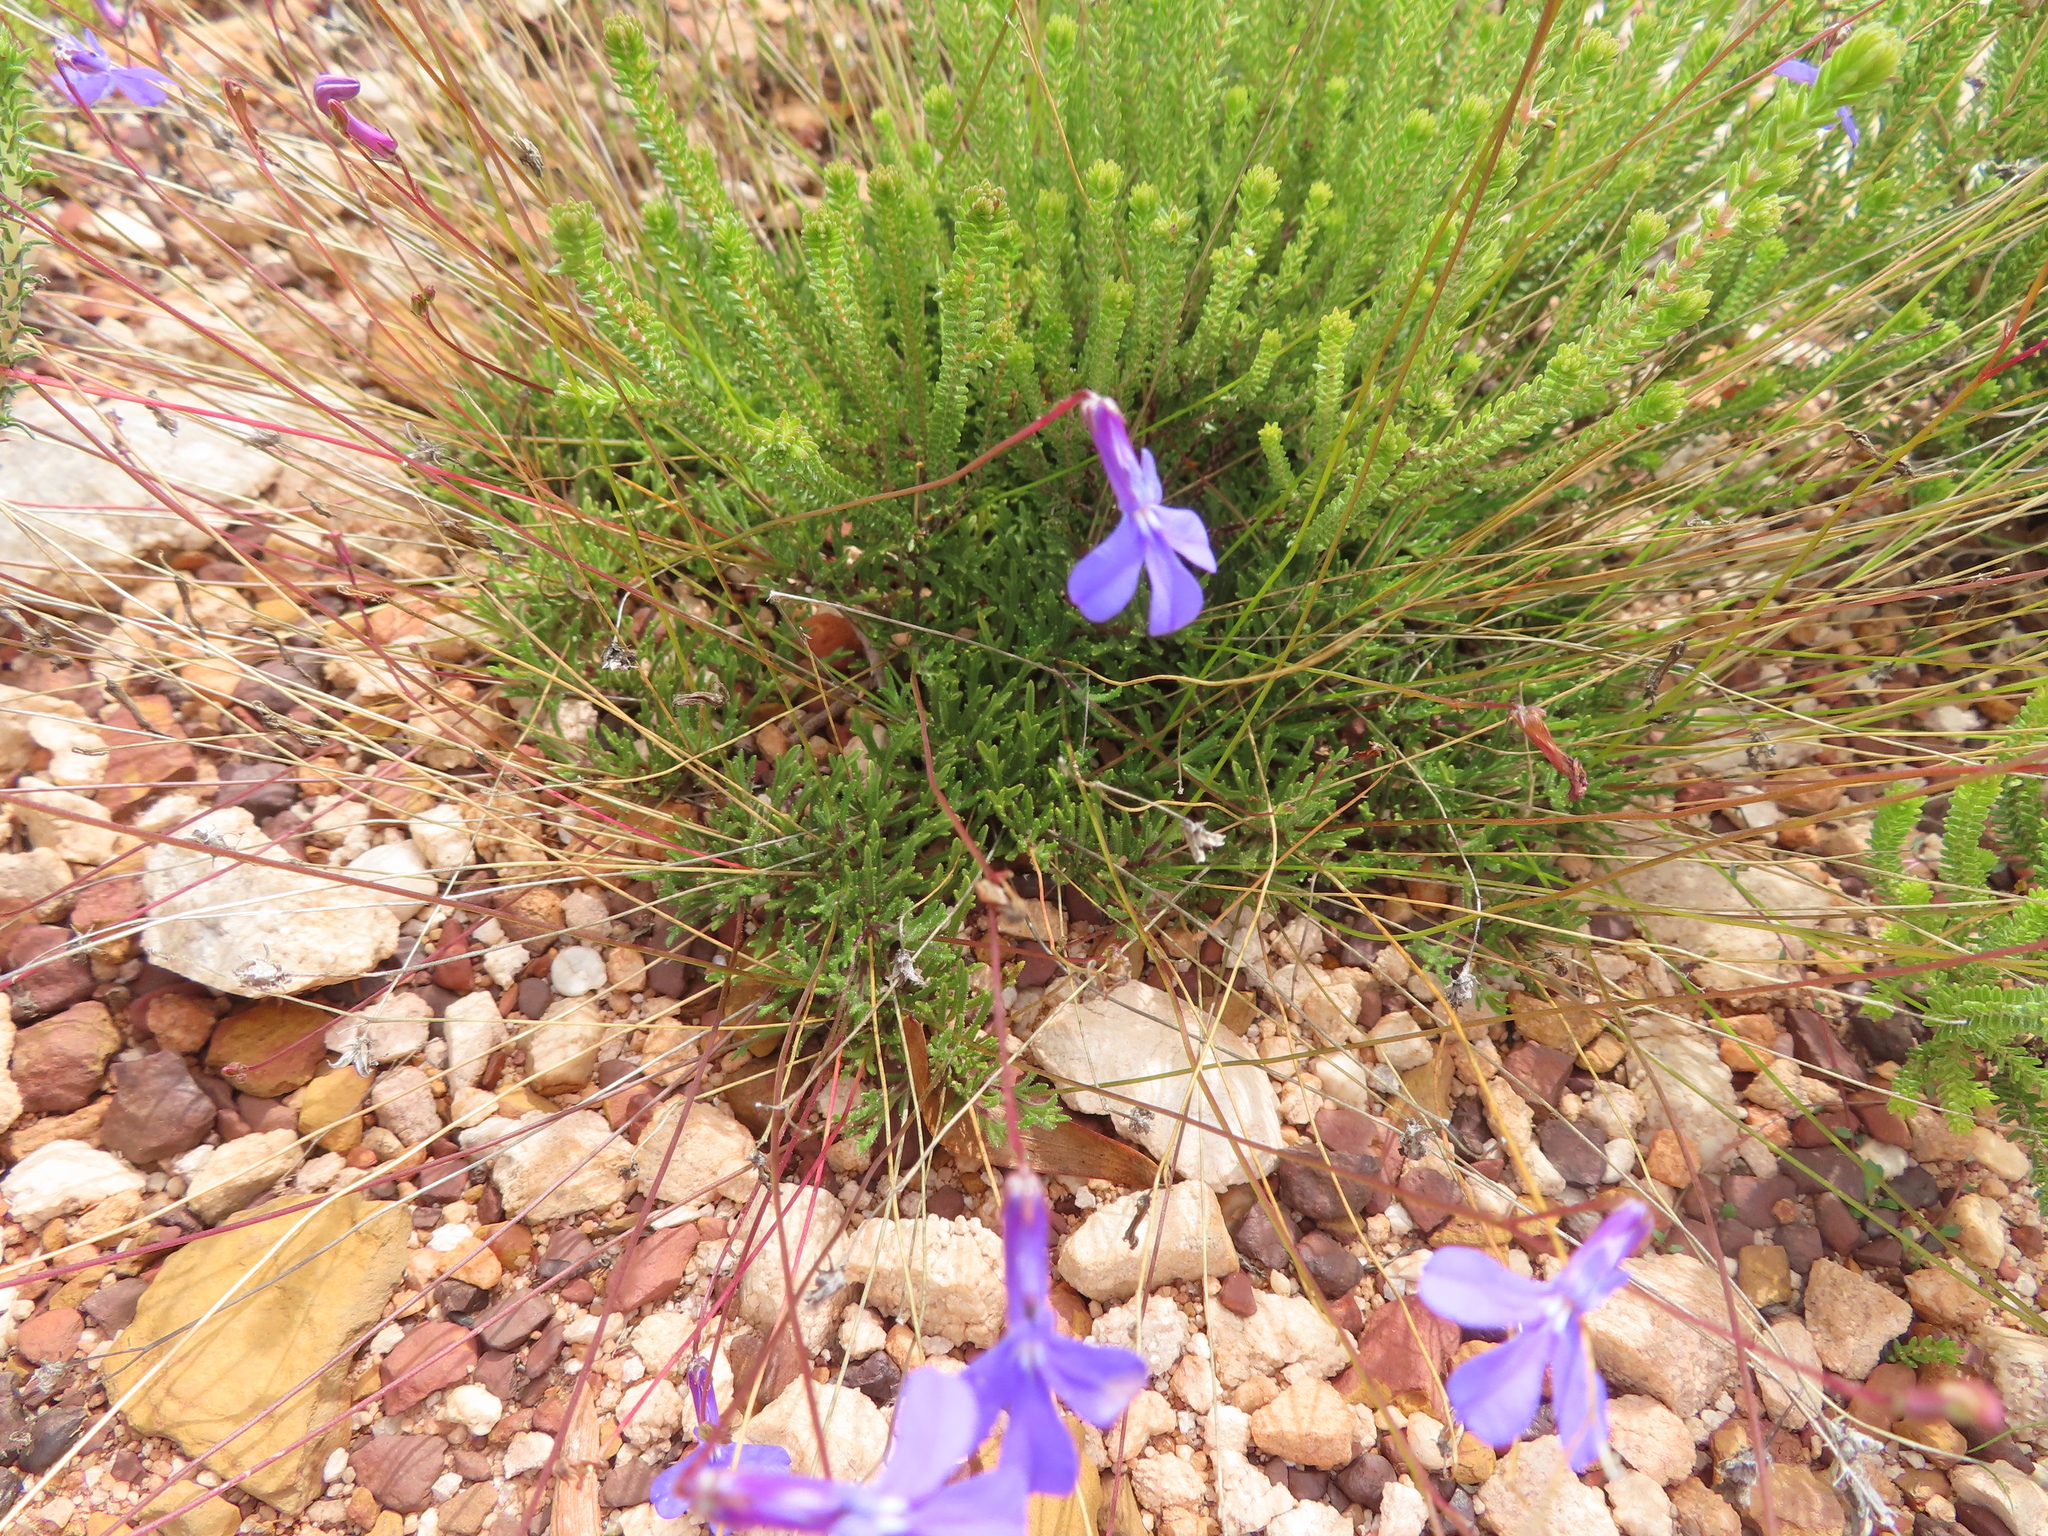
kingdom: Plantae
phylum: Tracheophyta
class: Magnoliopsida
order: Asterales
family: Campanulaceae
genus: Lobelia
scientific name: Lobelia coronopifolia
